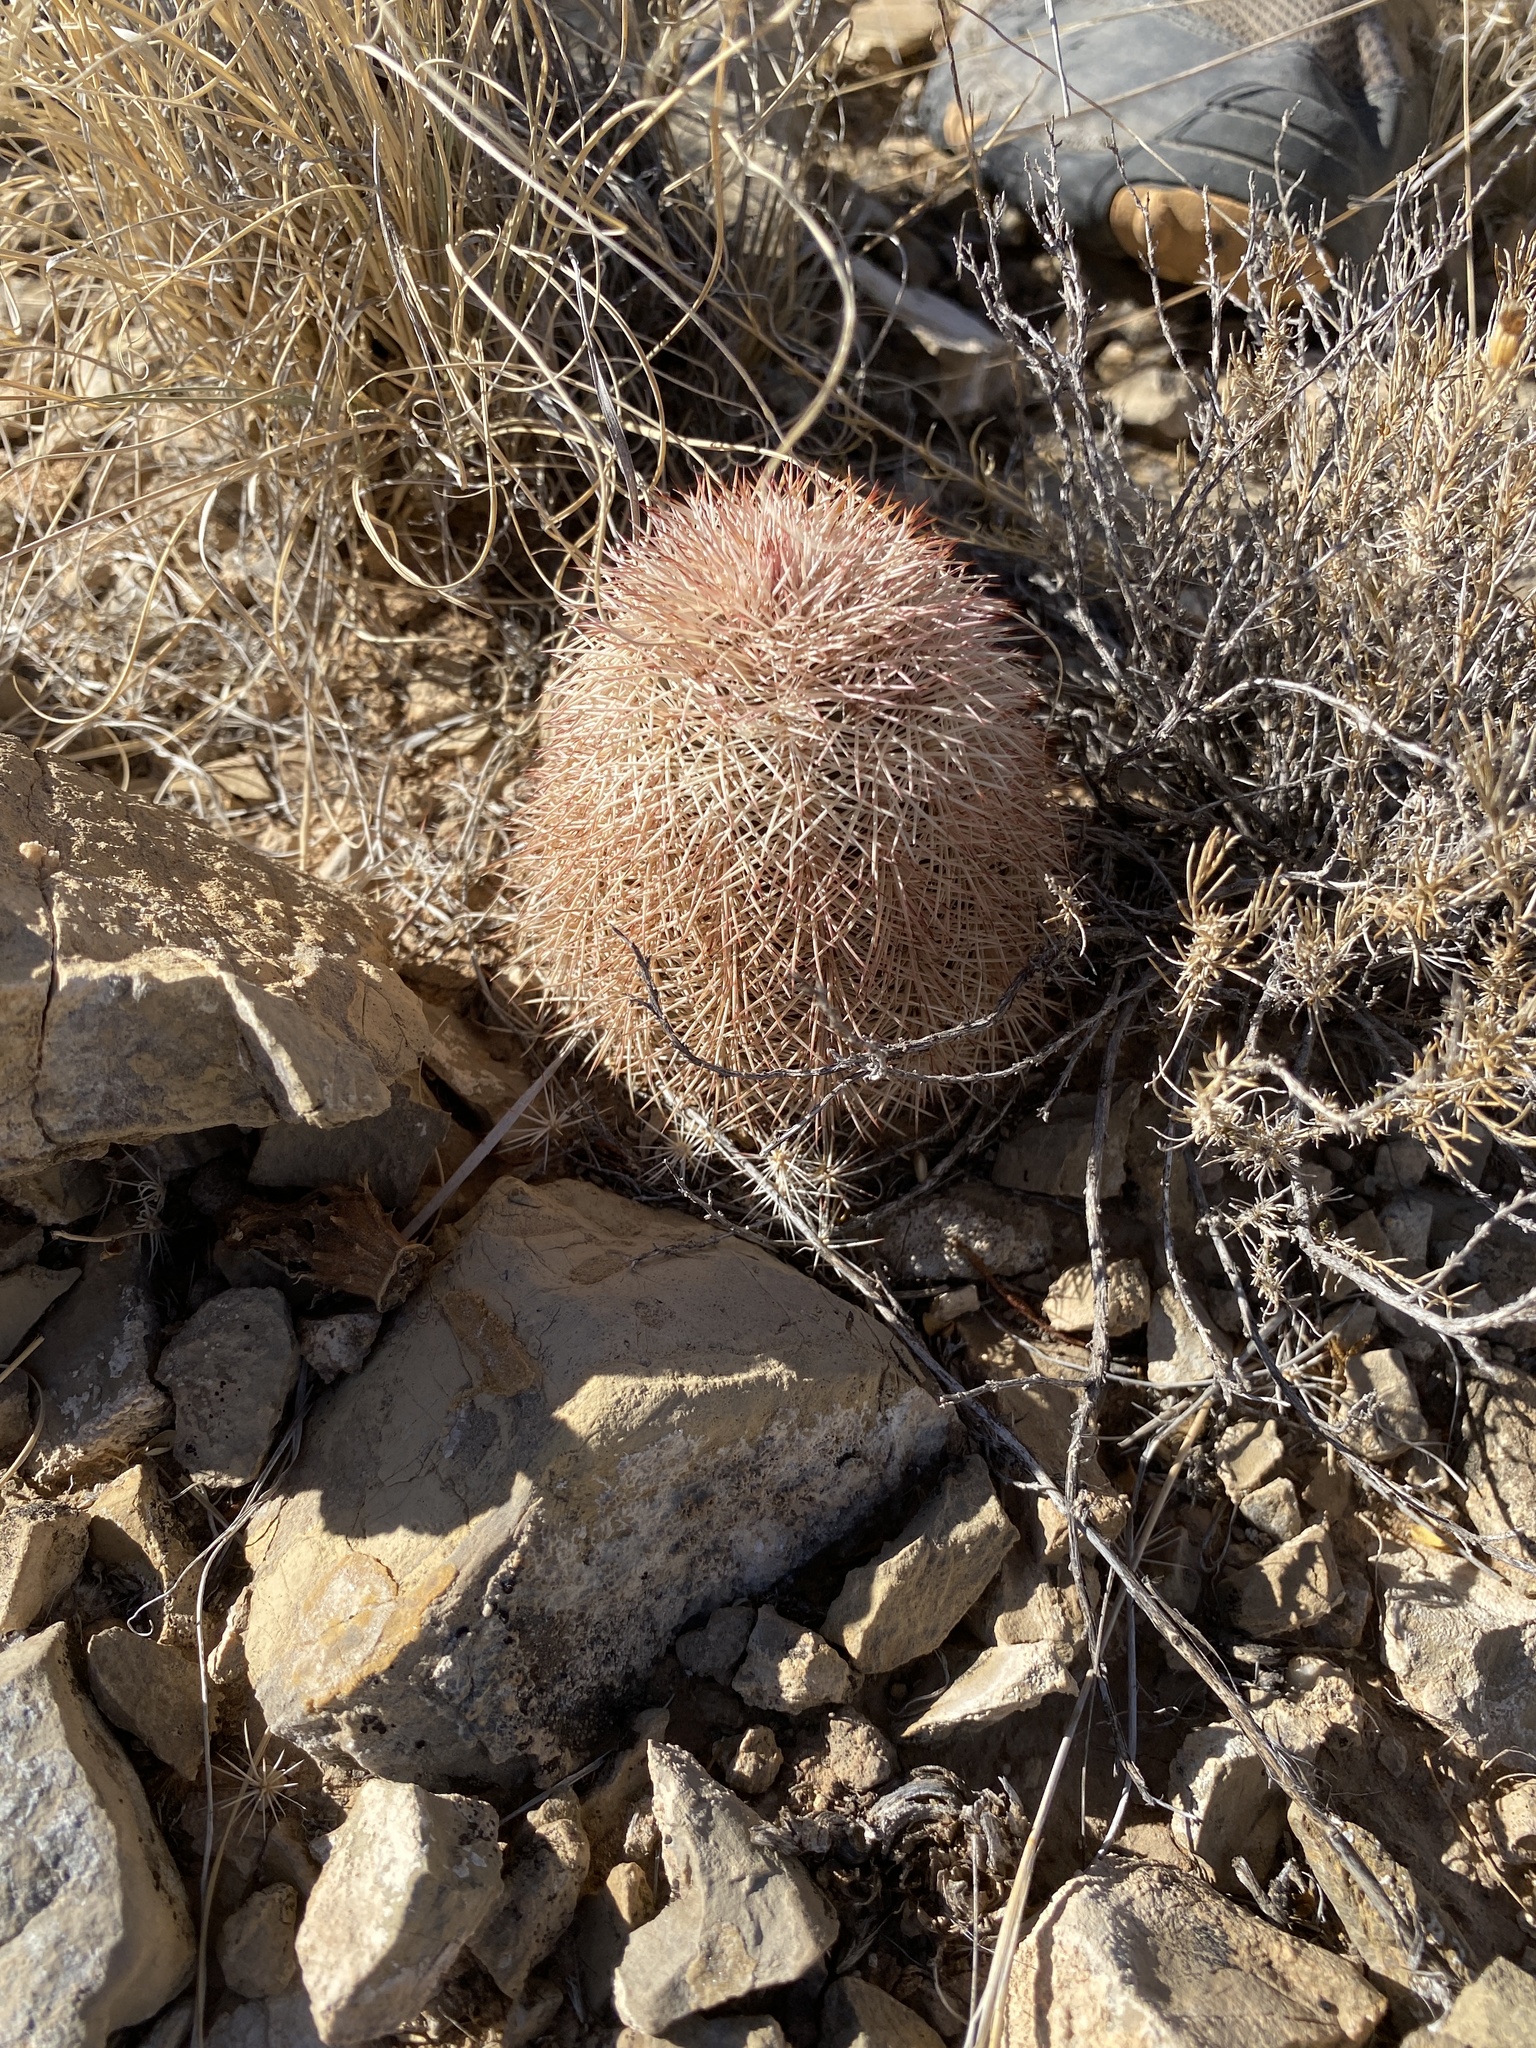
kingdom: Plantae
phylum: Tracheophyta
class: Magnoliopsida
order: Caryophyllales
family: Cactaceae
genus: Echinocereus
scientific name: Echinocereus dasyacanthus
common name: Spiny hedgehog cactus
